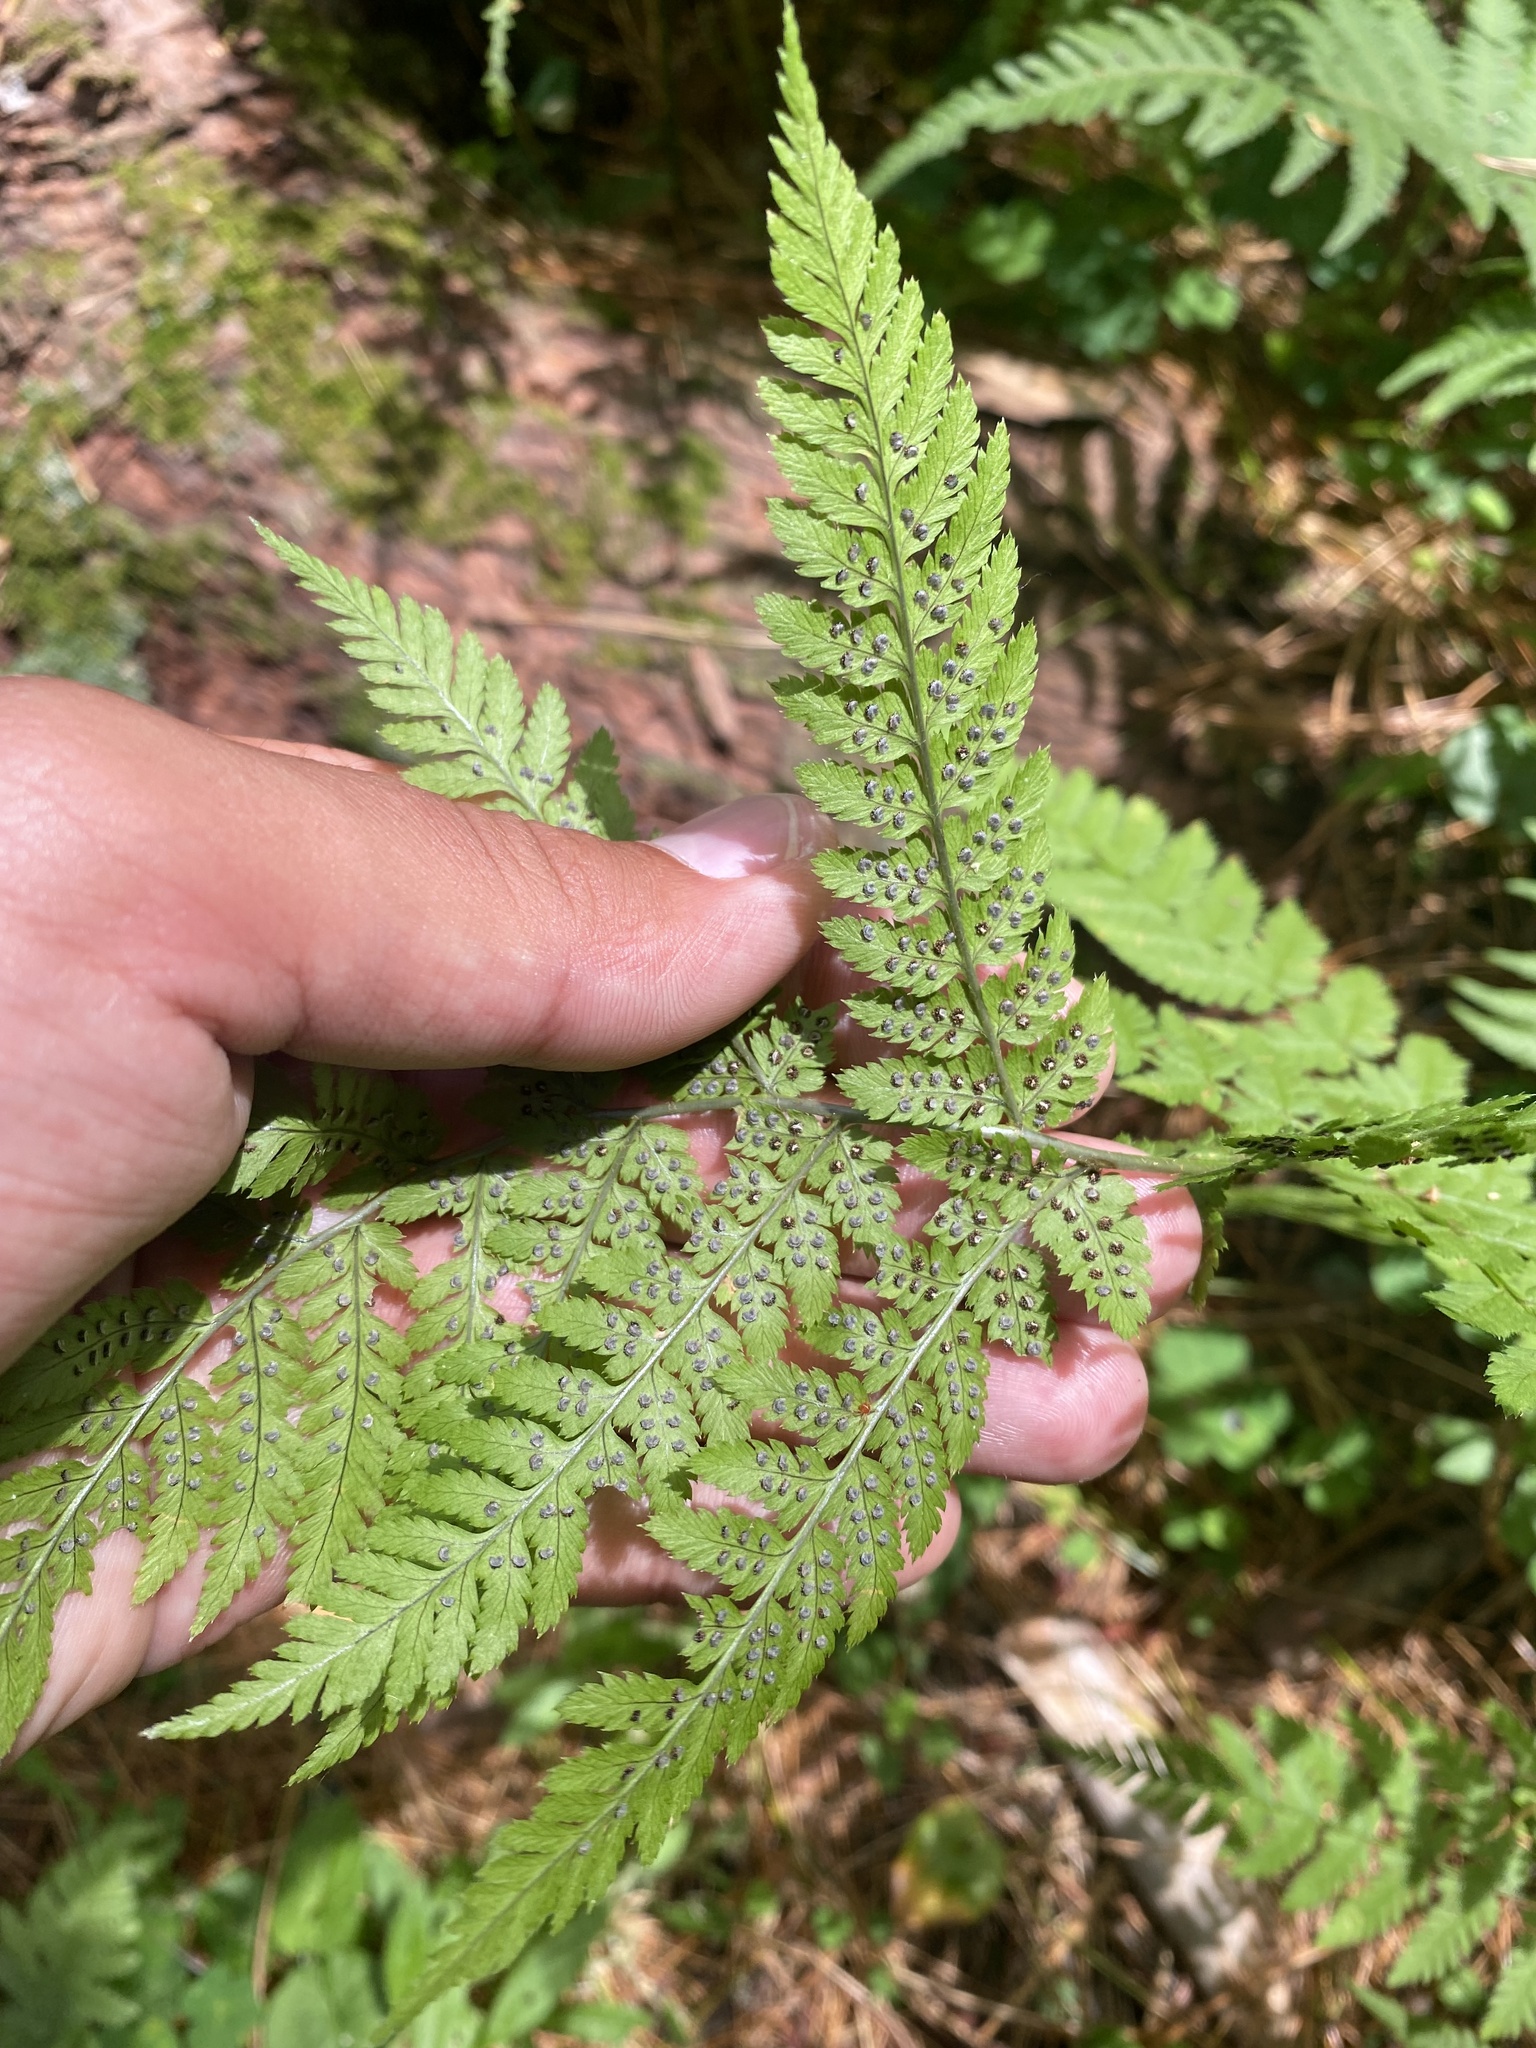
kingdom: Plantae
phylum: Tracheophyta
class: Polypodiopsida
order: Polypodiales
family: Dryopteridaceae
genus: Dryopteris
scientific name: Dryopteris expansa
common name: Northern buckler fern
